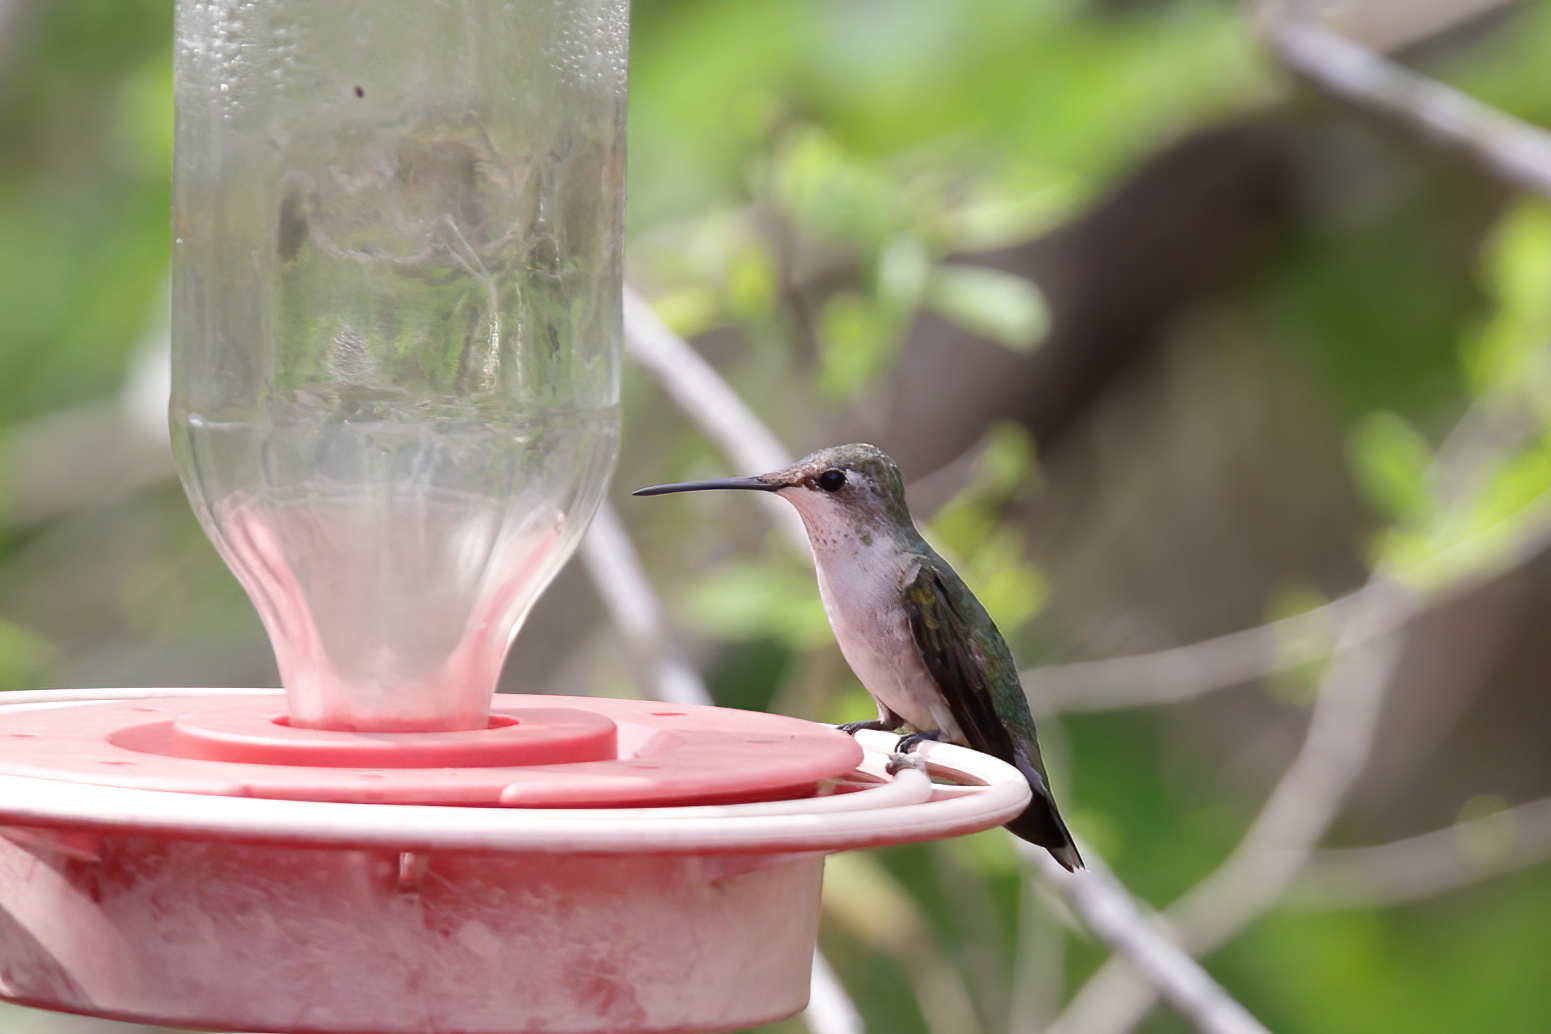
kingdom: Animalia
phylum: Chordata
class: Aves
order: Apodiformes
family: Trochilidae
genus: Archilochus
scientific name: Archilochus colubris
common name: Ruby-throated hummingbird
